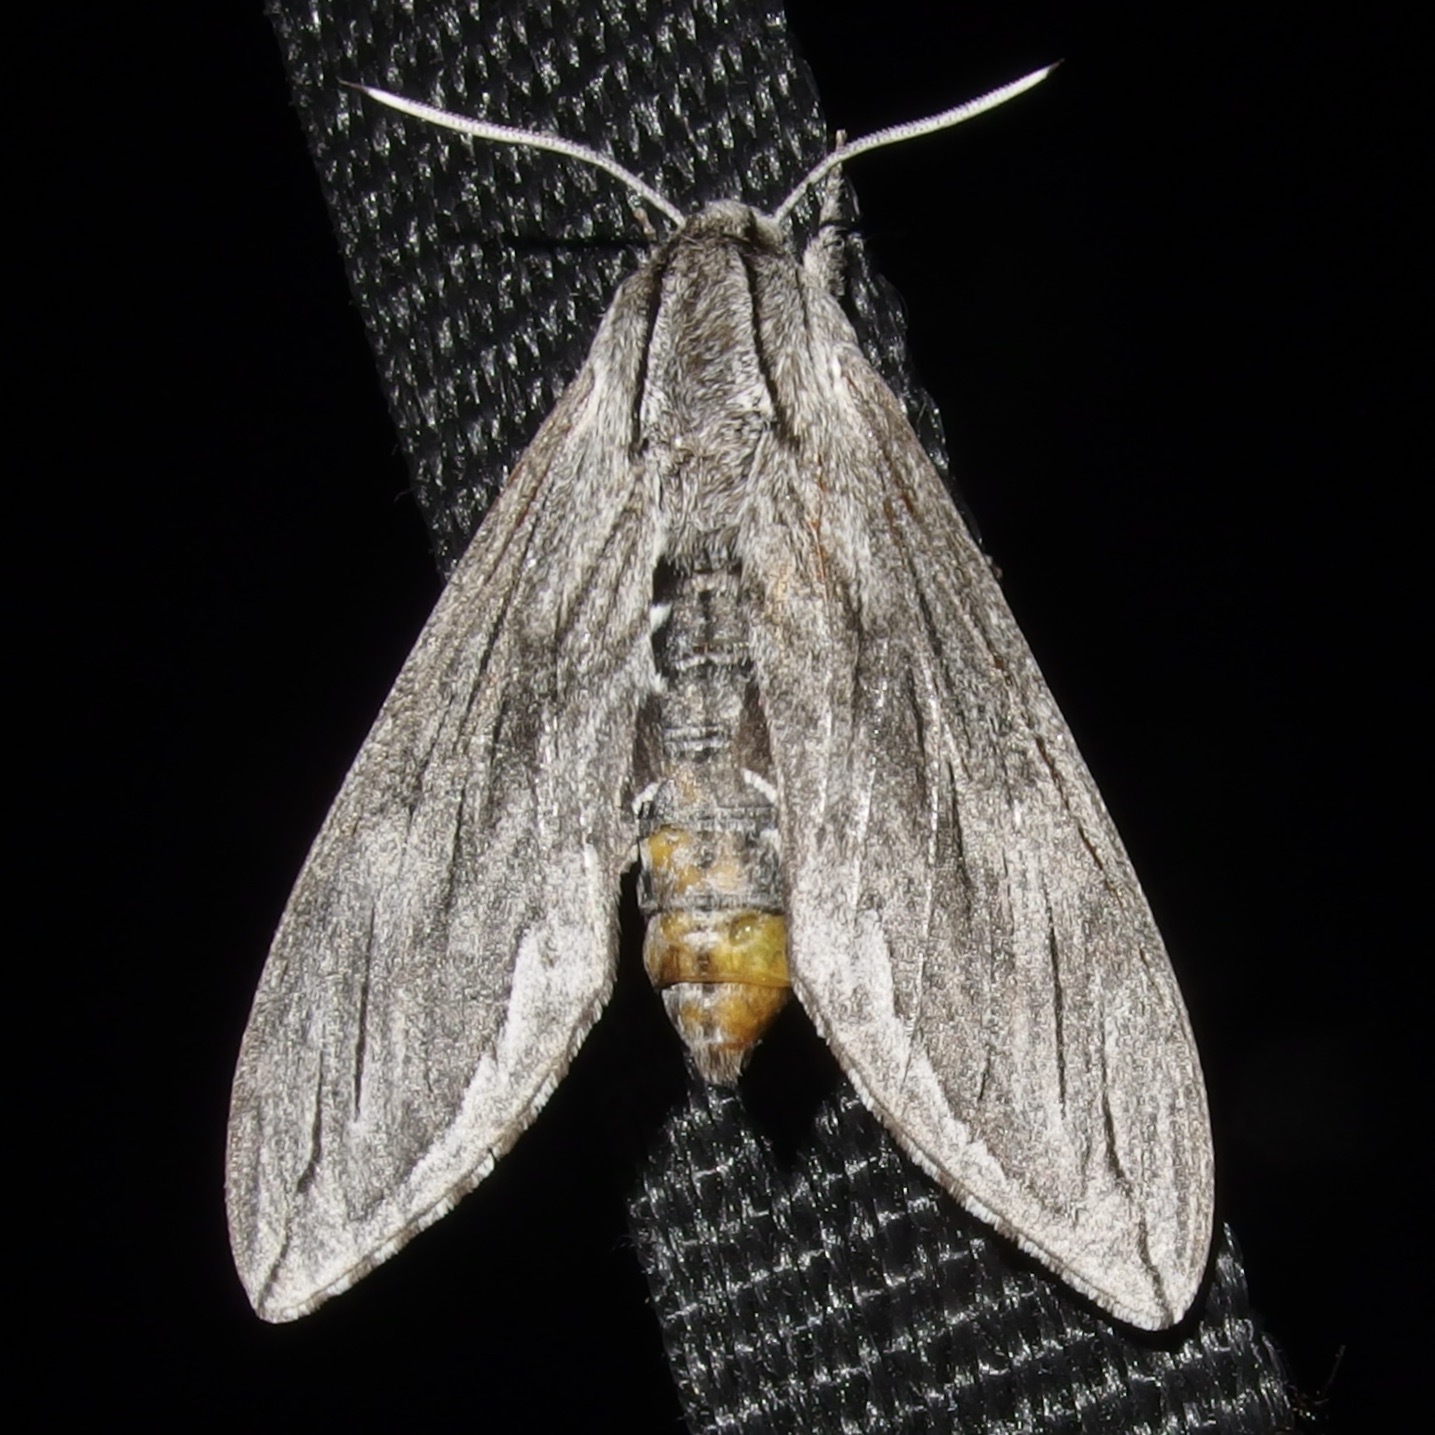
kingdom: Animalia
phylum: Arthropoda
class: Insecta
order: Lepidoptera
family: Sphingidae
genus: Sphinx
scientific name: Sphinx libocedrus
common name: Incense cedar sphinx
